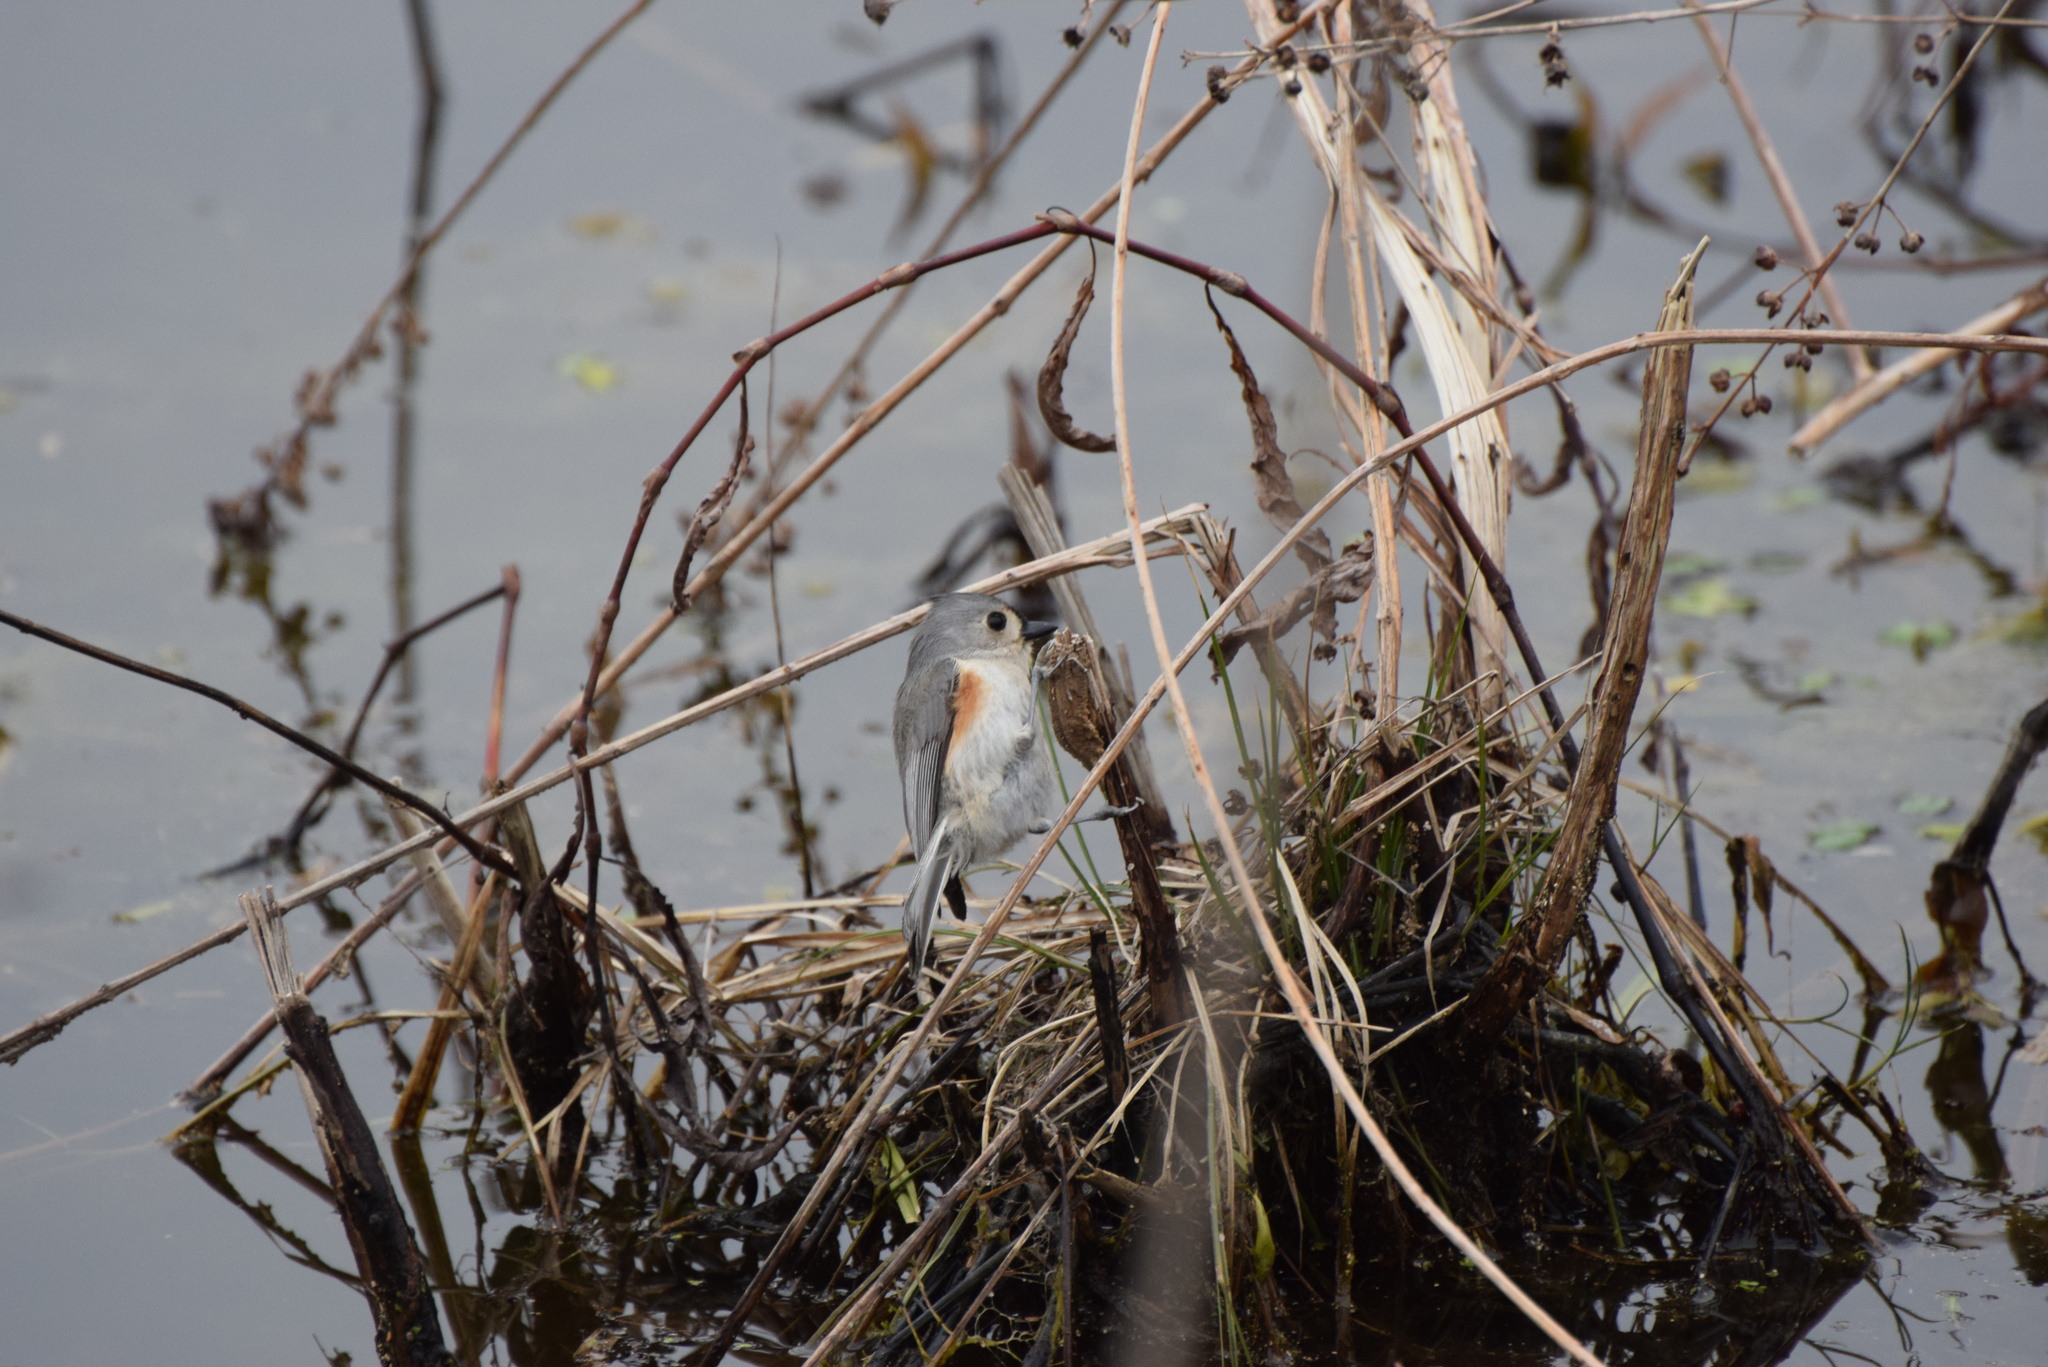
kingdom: Animalia
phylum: Chordata
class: Aves
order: Passeriformes
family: Paridae
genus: Baeolophus
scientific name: Baeolophus bicolor
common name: Tufted titmouse
